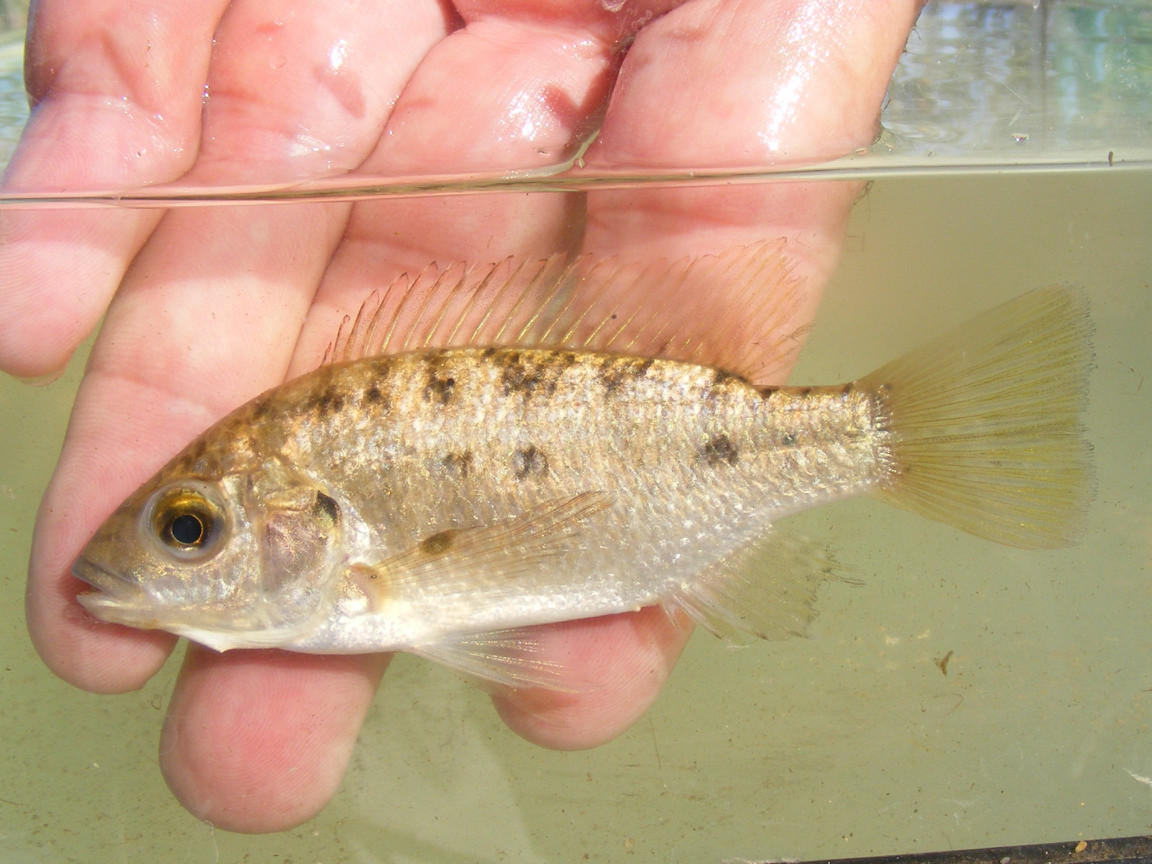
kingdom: Animalia
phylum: Chordata
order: Perciformes
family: Cichlidae
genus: Oreochromis
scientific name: Oreochromis mossambicus
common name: Mozambique tilapia
